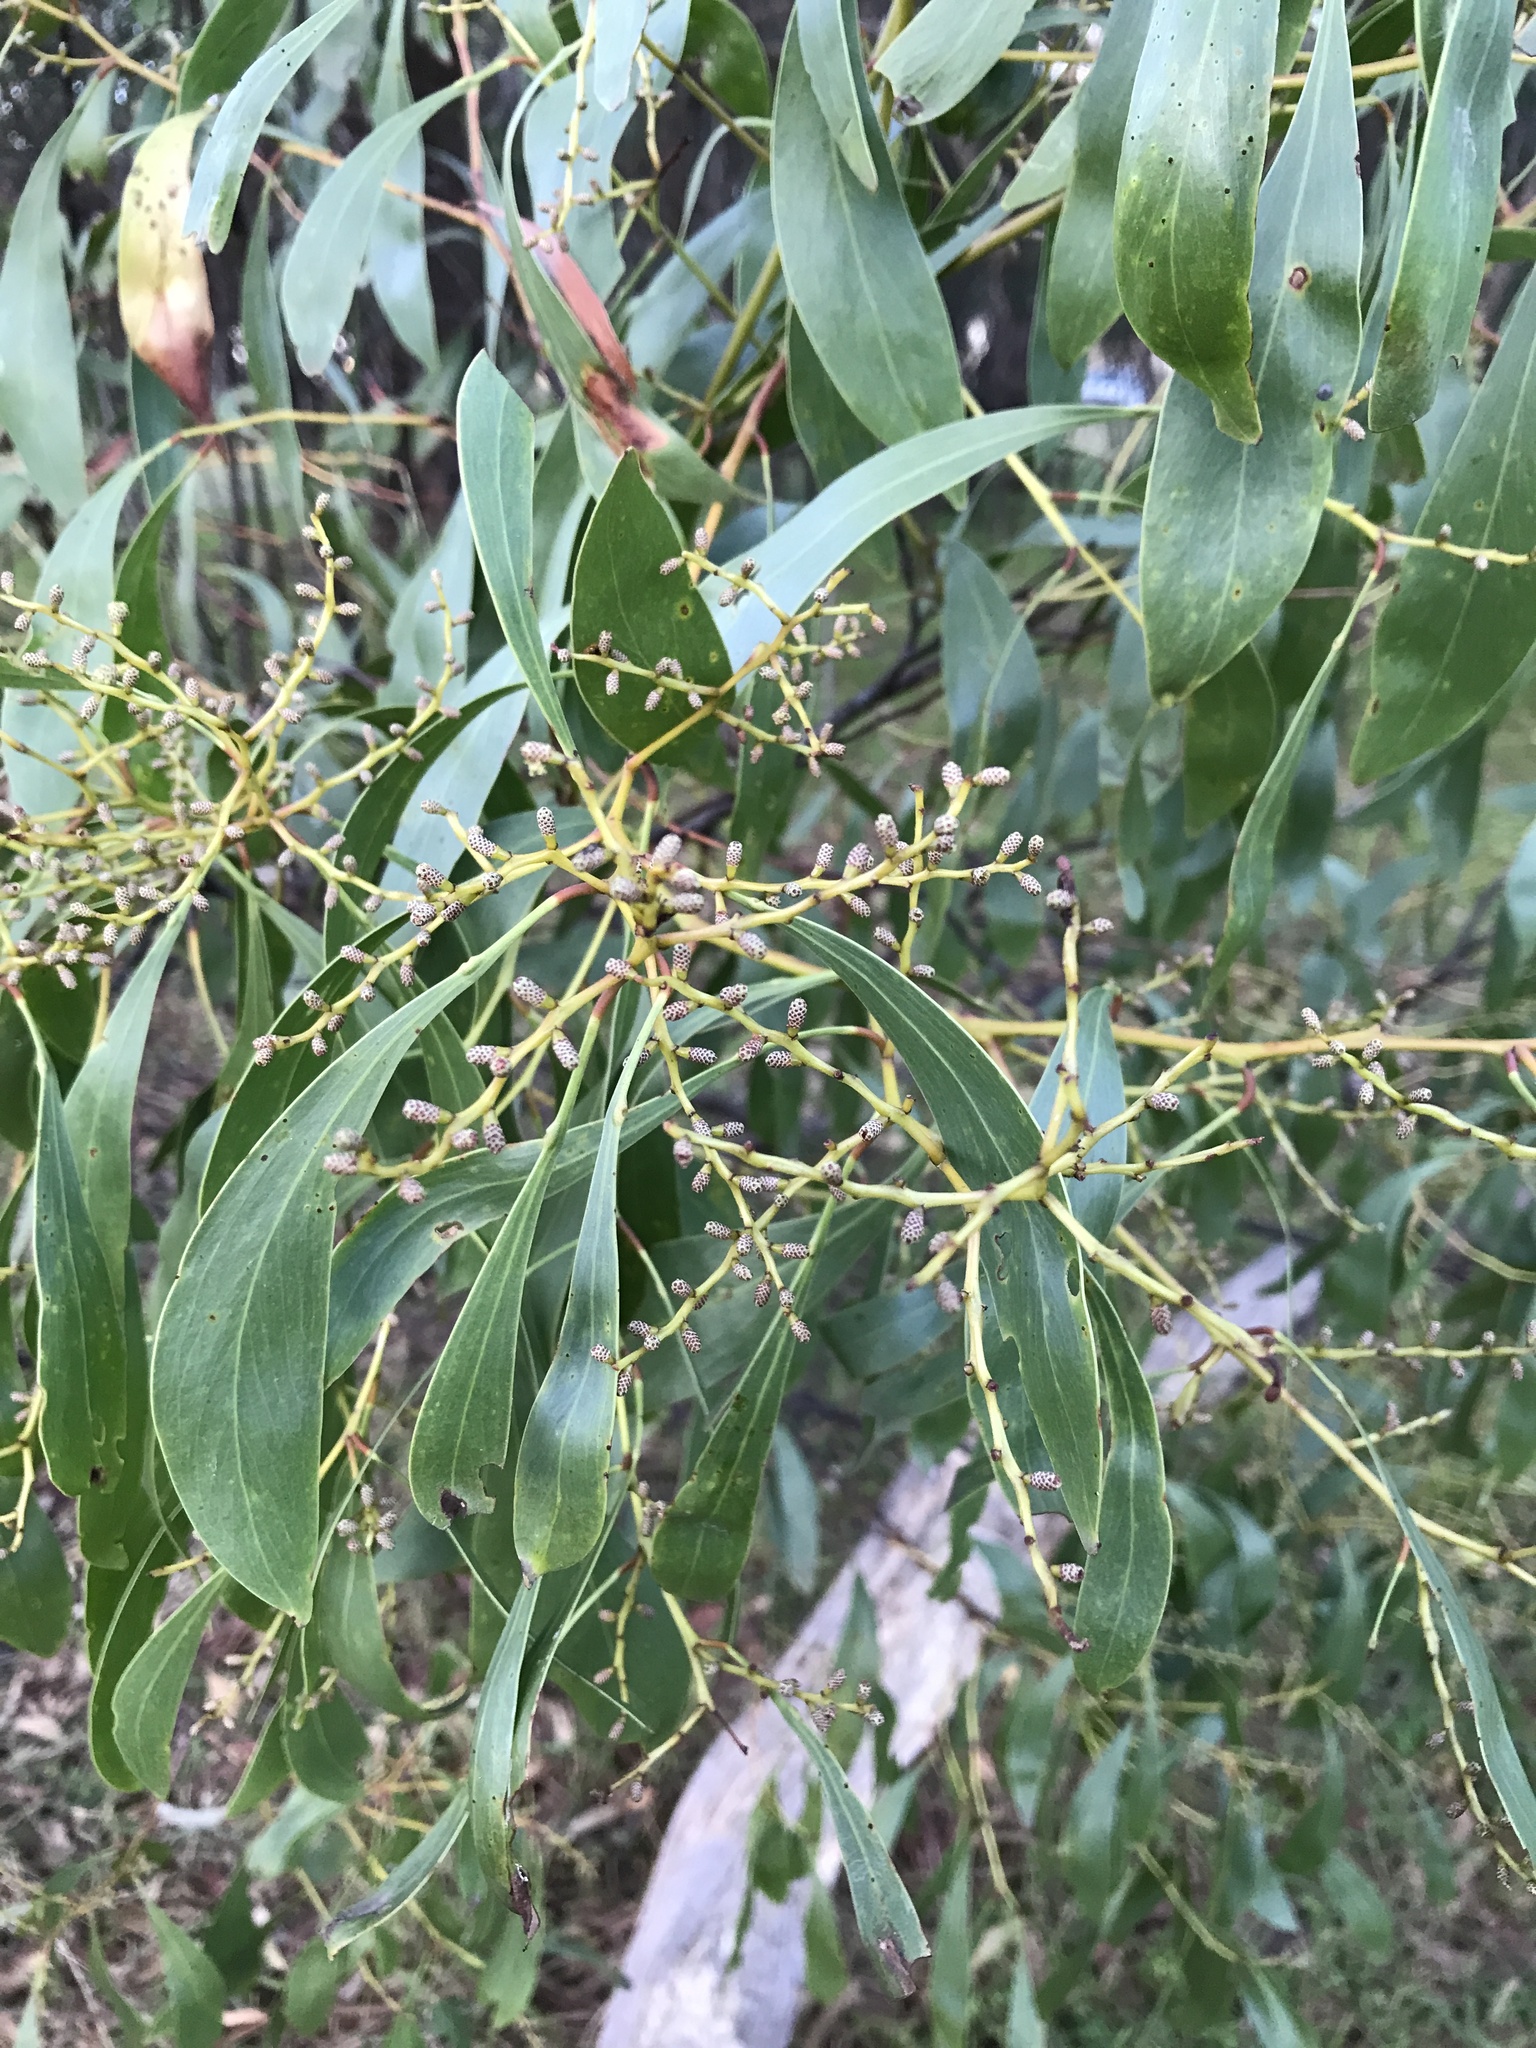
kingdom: Plantae
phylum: Tracheophyta
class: Magnoliopsida
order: Fabales
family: Fabaceae
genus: Acacia
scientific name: Acacia pycnantha
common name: Golden wattle
